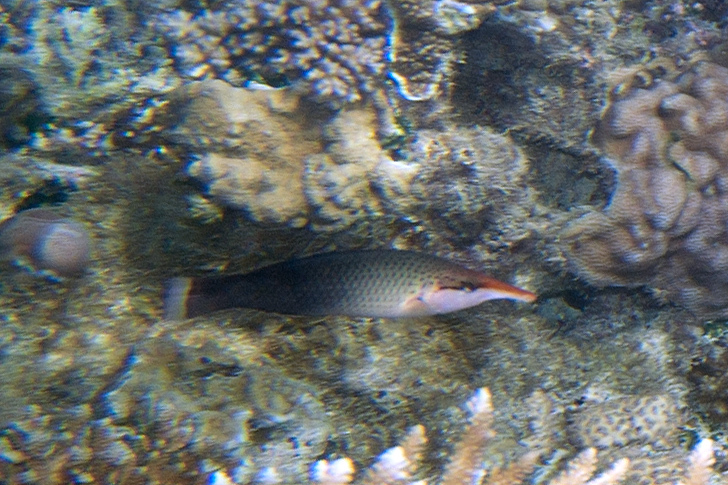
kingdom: Animalia
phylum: Chordata
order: Perciformes
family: Labridae
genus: Gomphosus
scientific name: Gomphosus varius
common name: Bird wrasse
